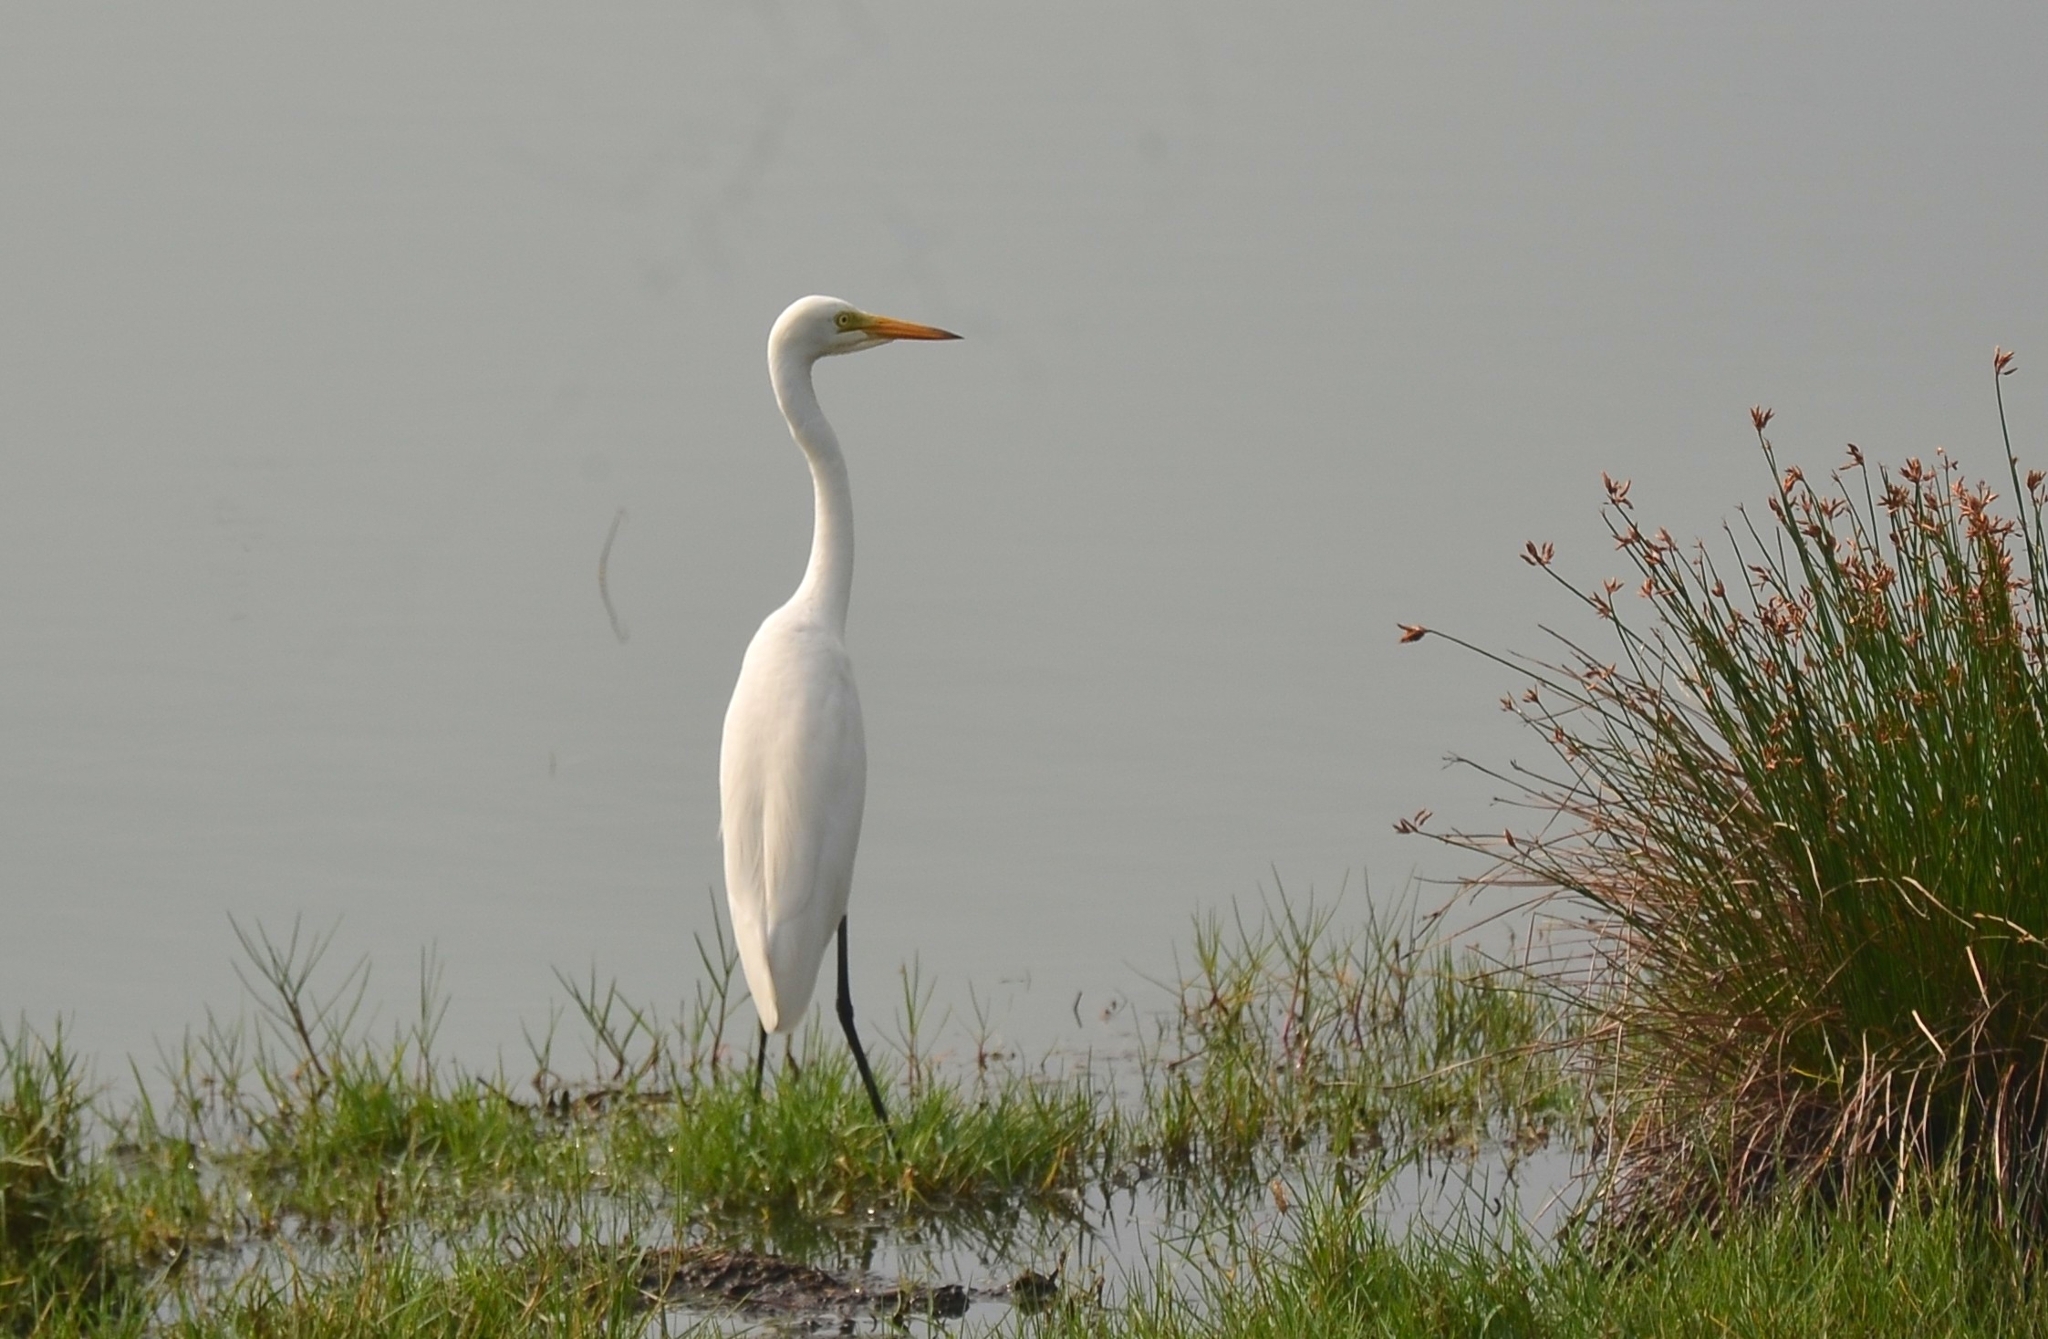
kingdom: Animalia
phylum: Chordata
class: Aves
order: Pelecaniformes
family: Ardeidae
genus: Egretta
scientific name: Egretta intermedia
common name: Intermediate egret
